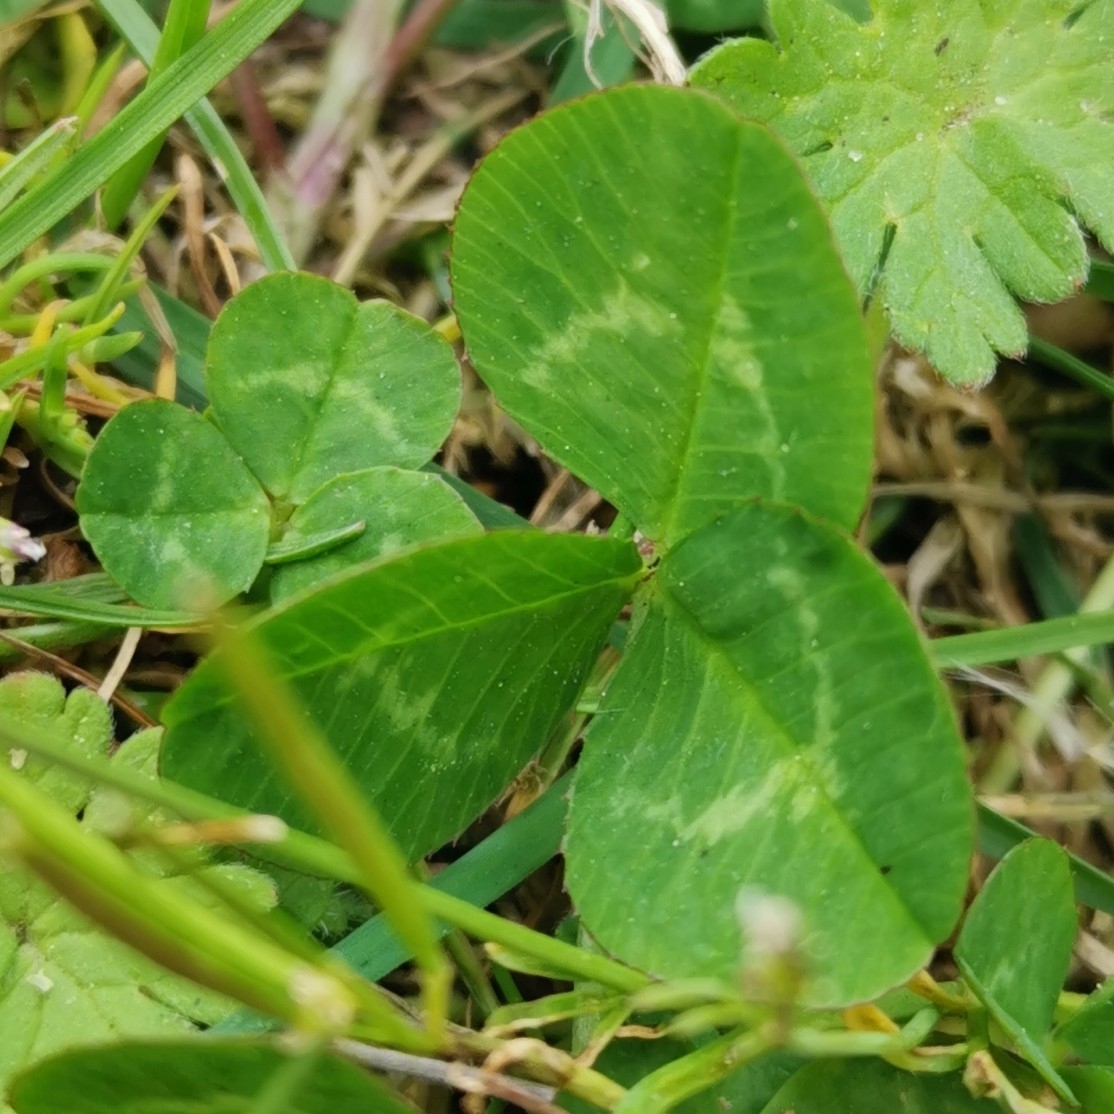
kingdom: Plantae
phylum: Tracheophyta
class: Magnoliopsida
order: Fabales
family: Fabaceae
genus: Trifolium
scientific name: Trifolium repens
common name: White clover
